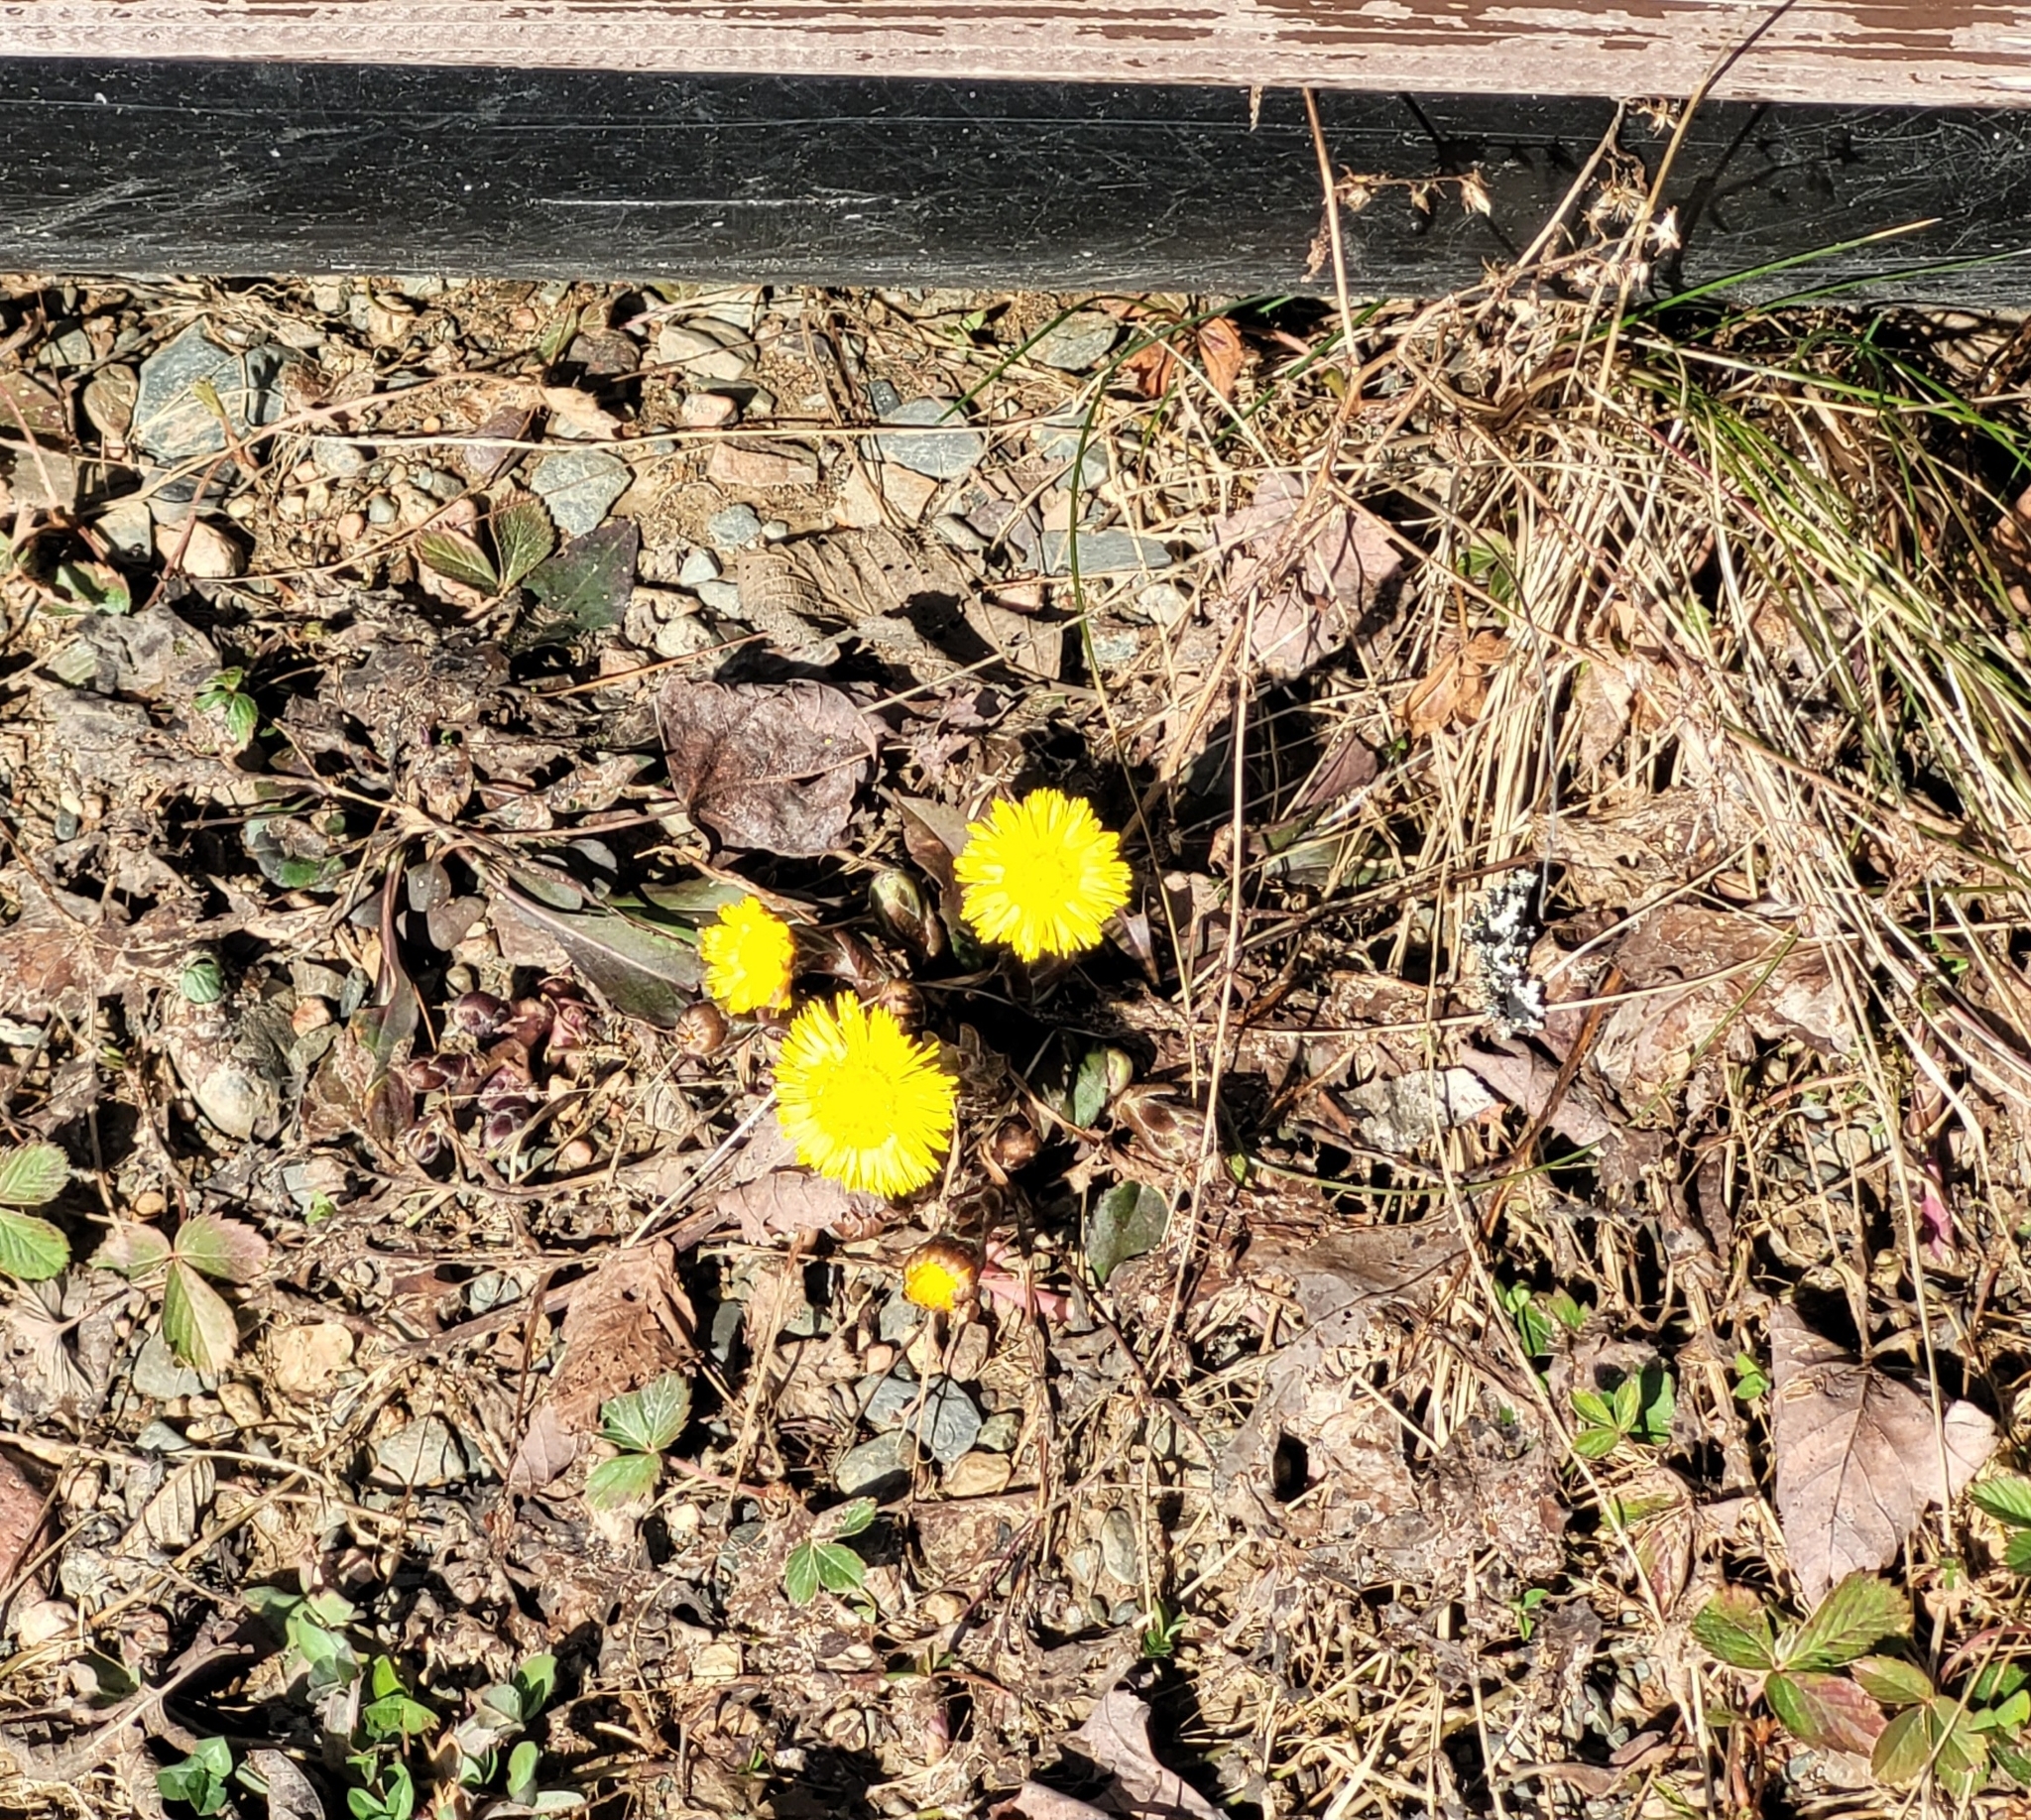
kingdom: Plantae
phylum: Tracheophyta
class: Magnoliopsida
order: Asterales
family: Asteraceae
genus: Tussilago
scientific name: Tussilago farfara
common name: Coltsfoot
